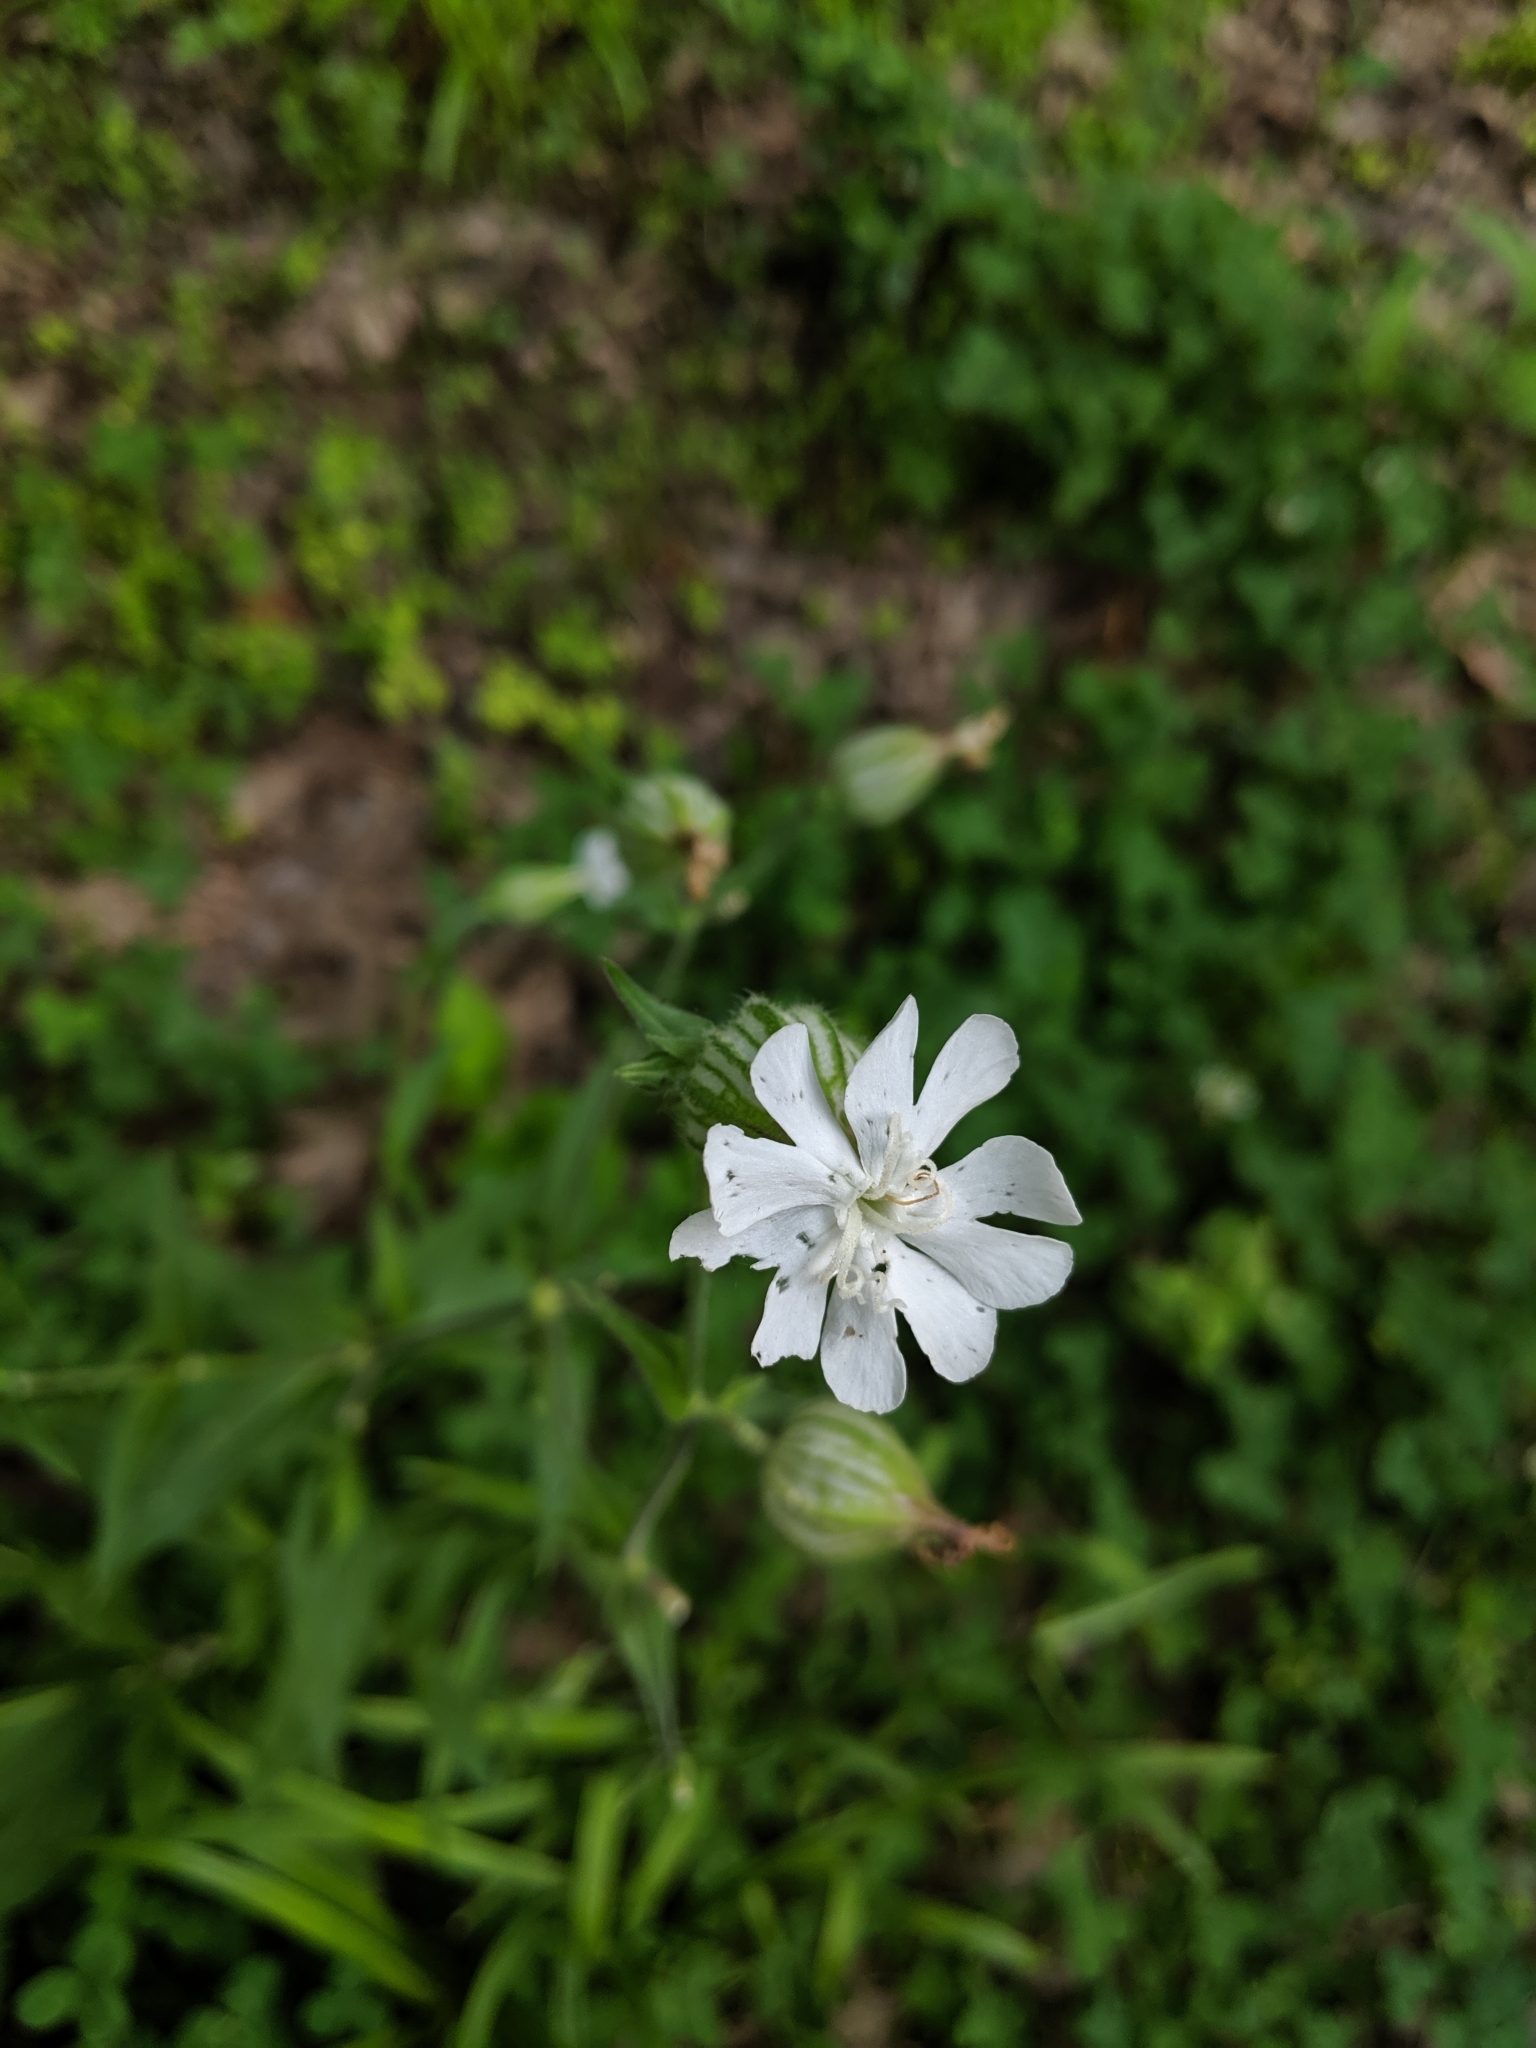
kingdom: Plantae
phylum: Tracheophyta
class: Magnoliopsida
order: Caryophyllales
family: Caryophyllaceae
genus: Silene
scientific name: Silene latifolia
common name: White campion
